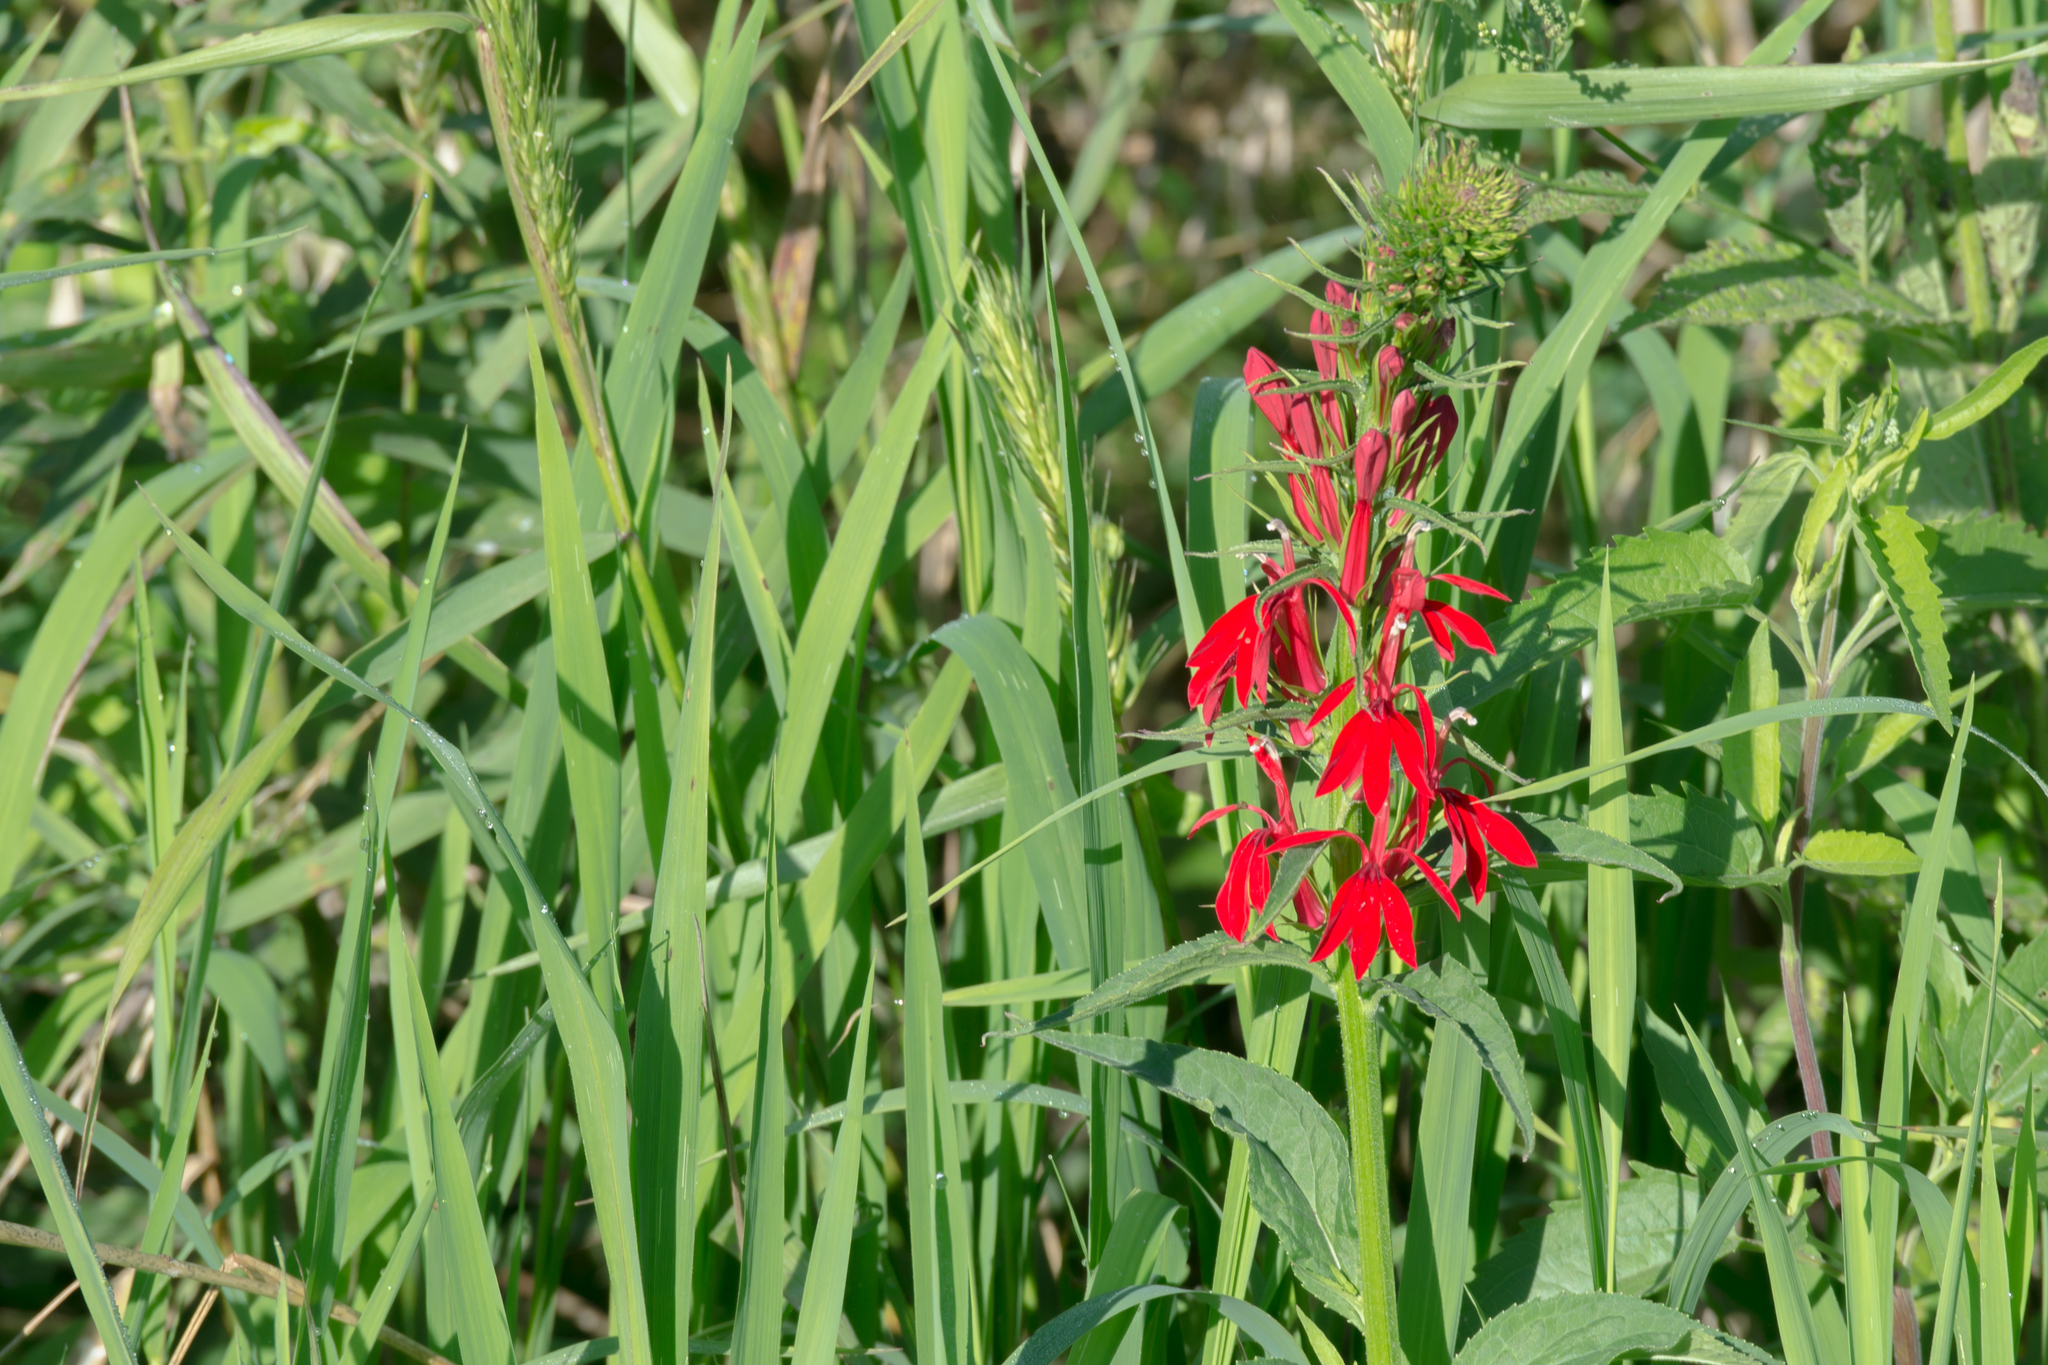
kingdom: Plantae
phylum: Tracheophyta
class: Magnoliopsida
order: Asterales
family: Campanulaceae
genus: Lobelia
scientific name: Lobelia cardinalis
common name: Cardinal flower
